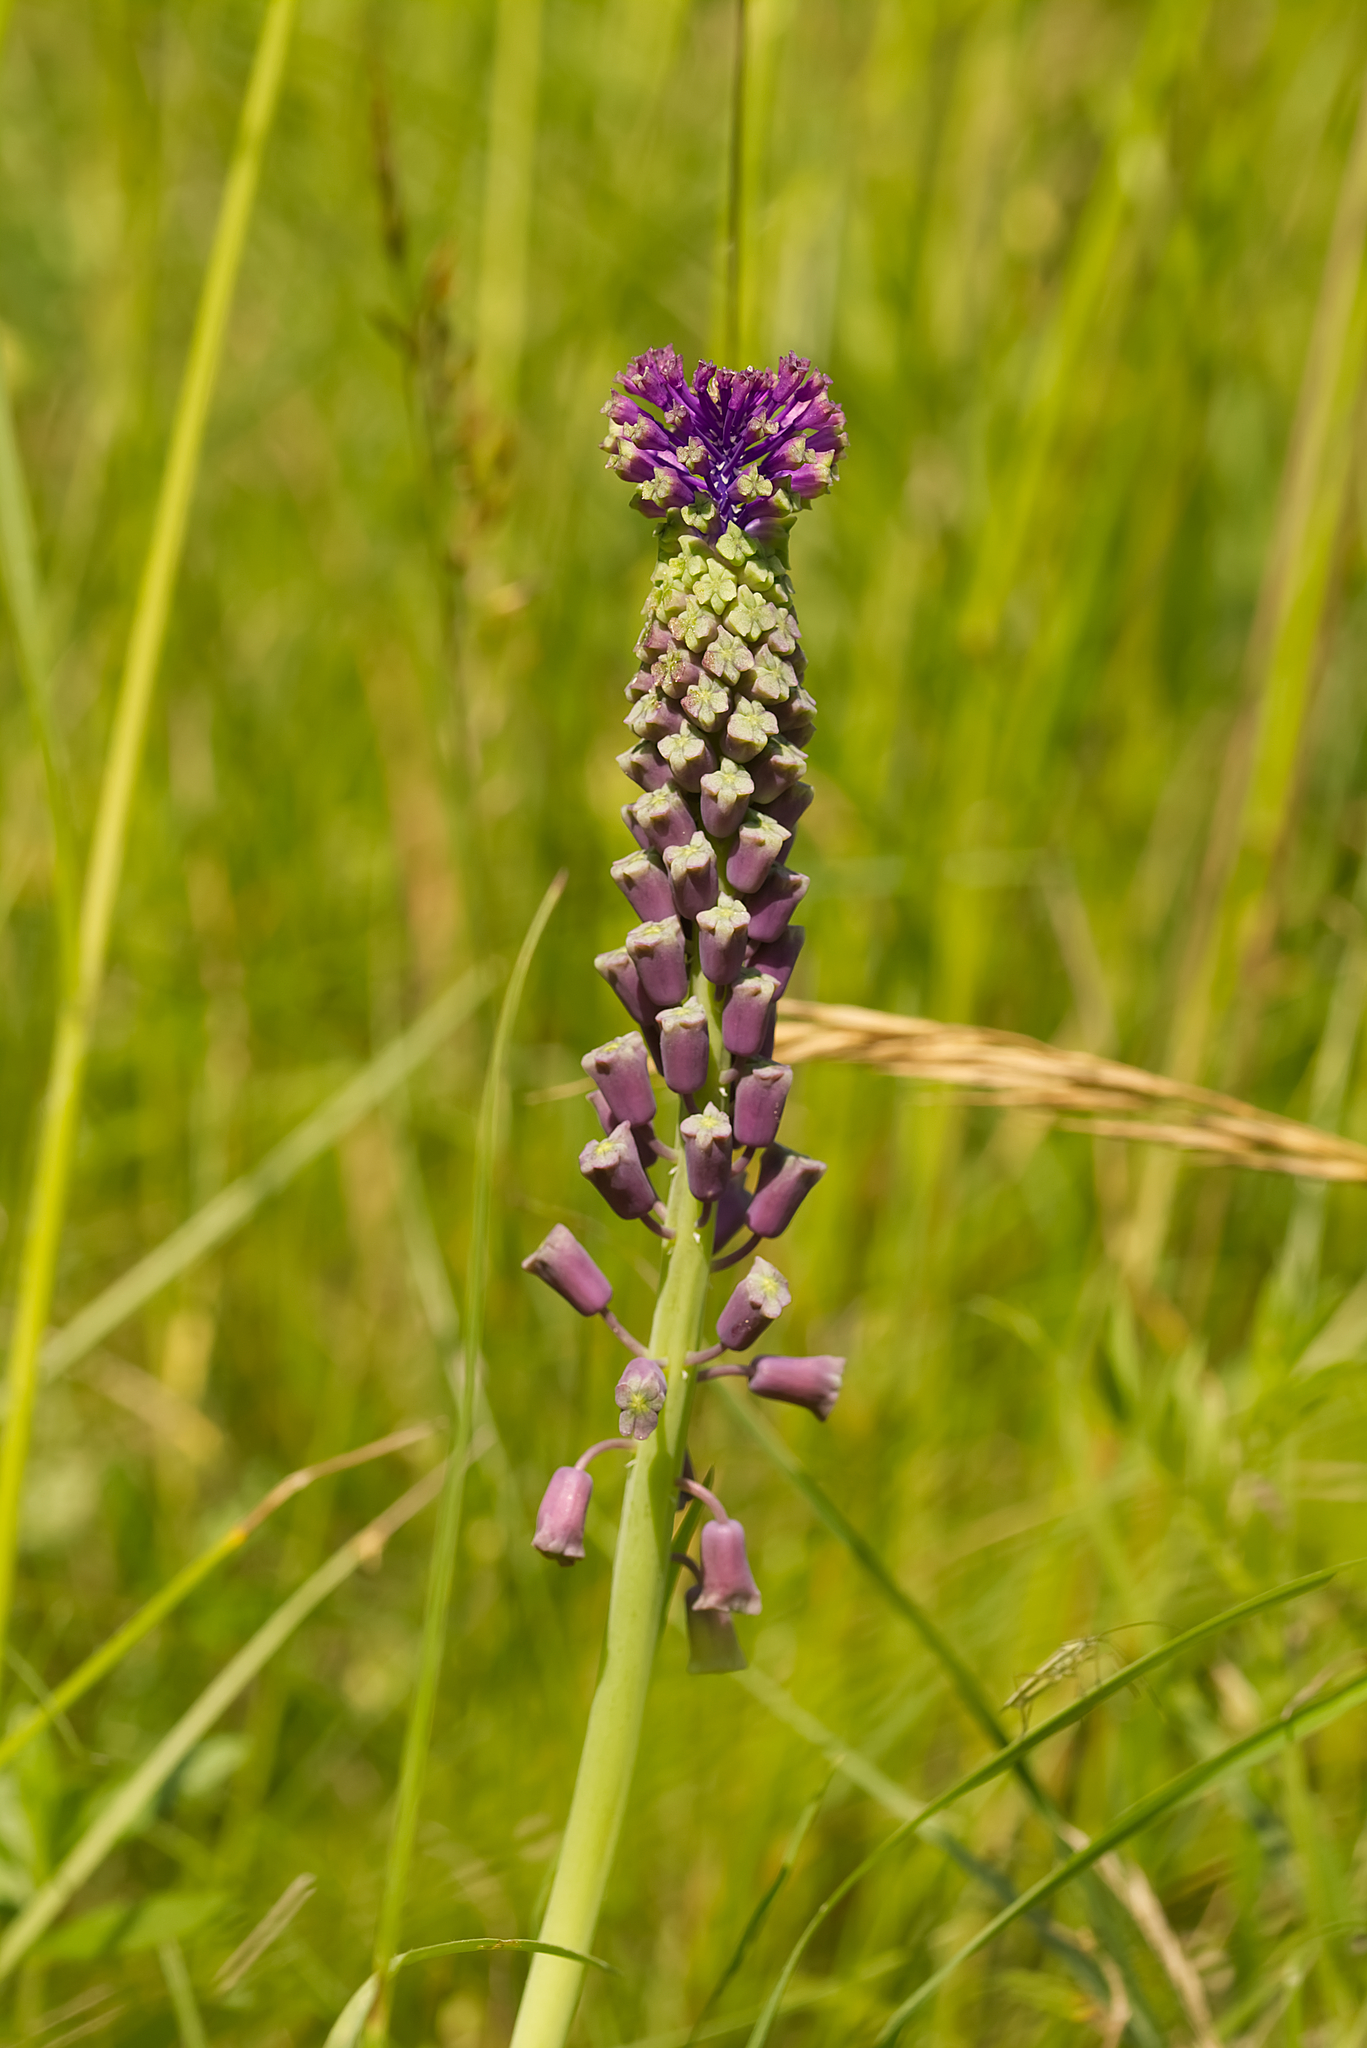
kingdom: Plantae
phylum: Tracheophyta
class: Liliopsida
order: Asparagales
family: Asparagaceae
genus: Muscari
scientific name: Muscari comosum
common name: Tassel hyacinth
